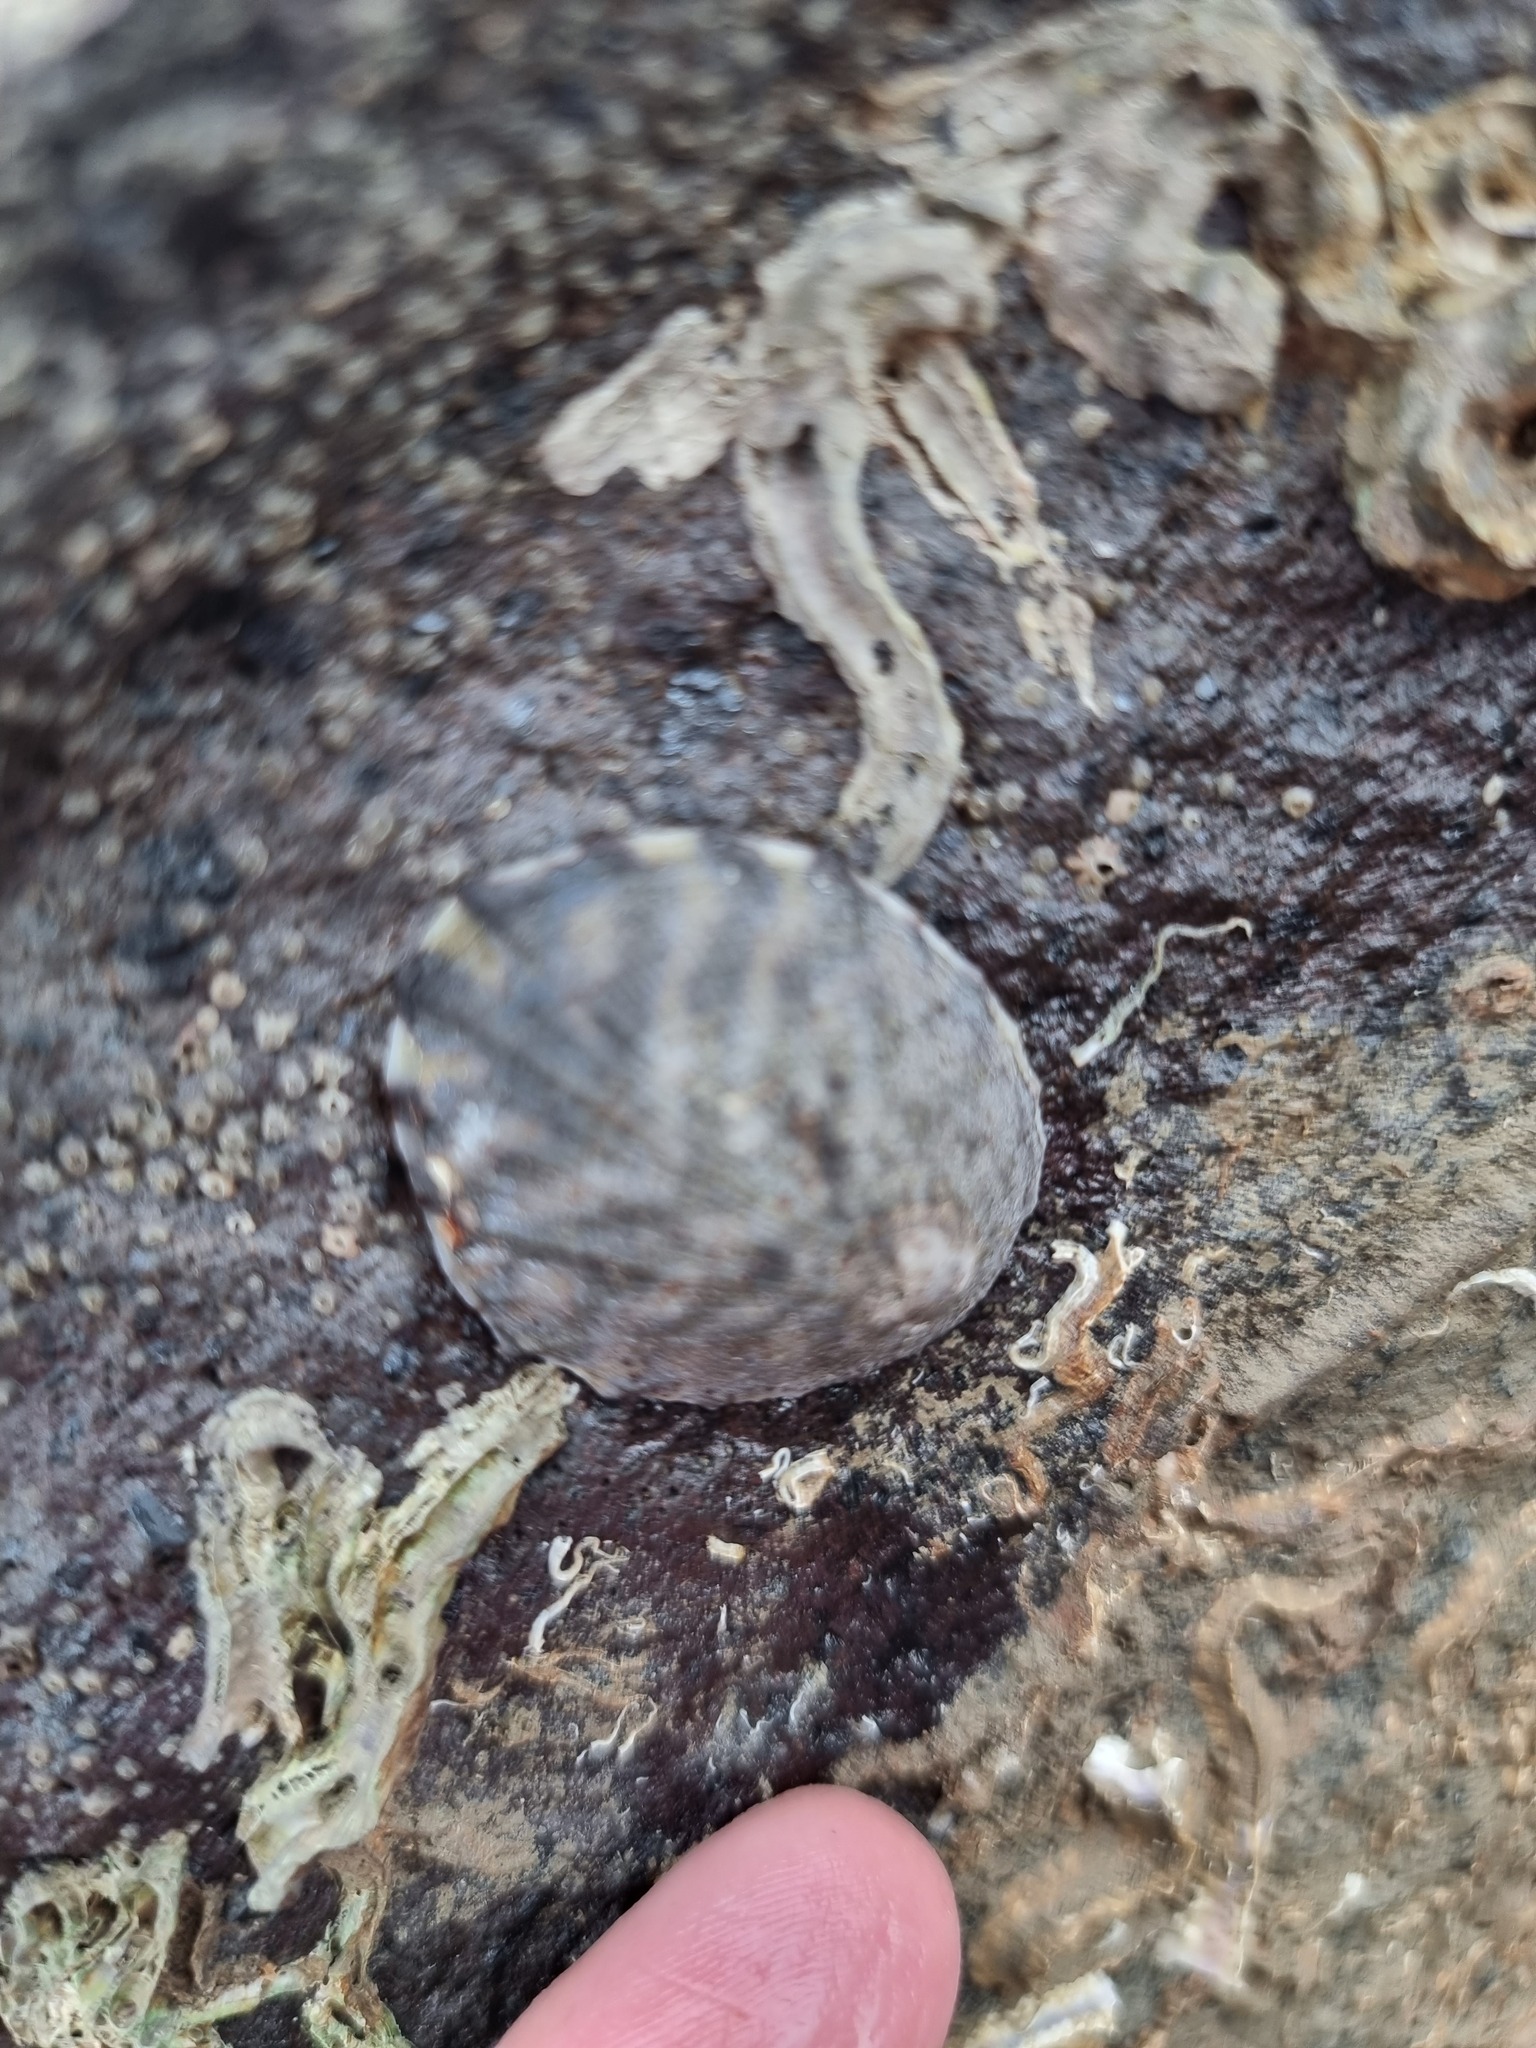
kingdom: Animalia
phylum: Mollusca
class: Gastropoda
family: Nacellidae
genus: Cellana
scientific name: Cellana radians
